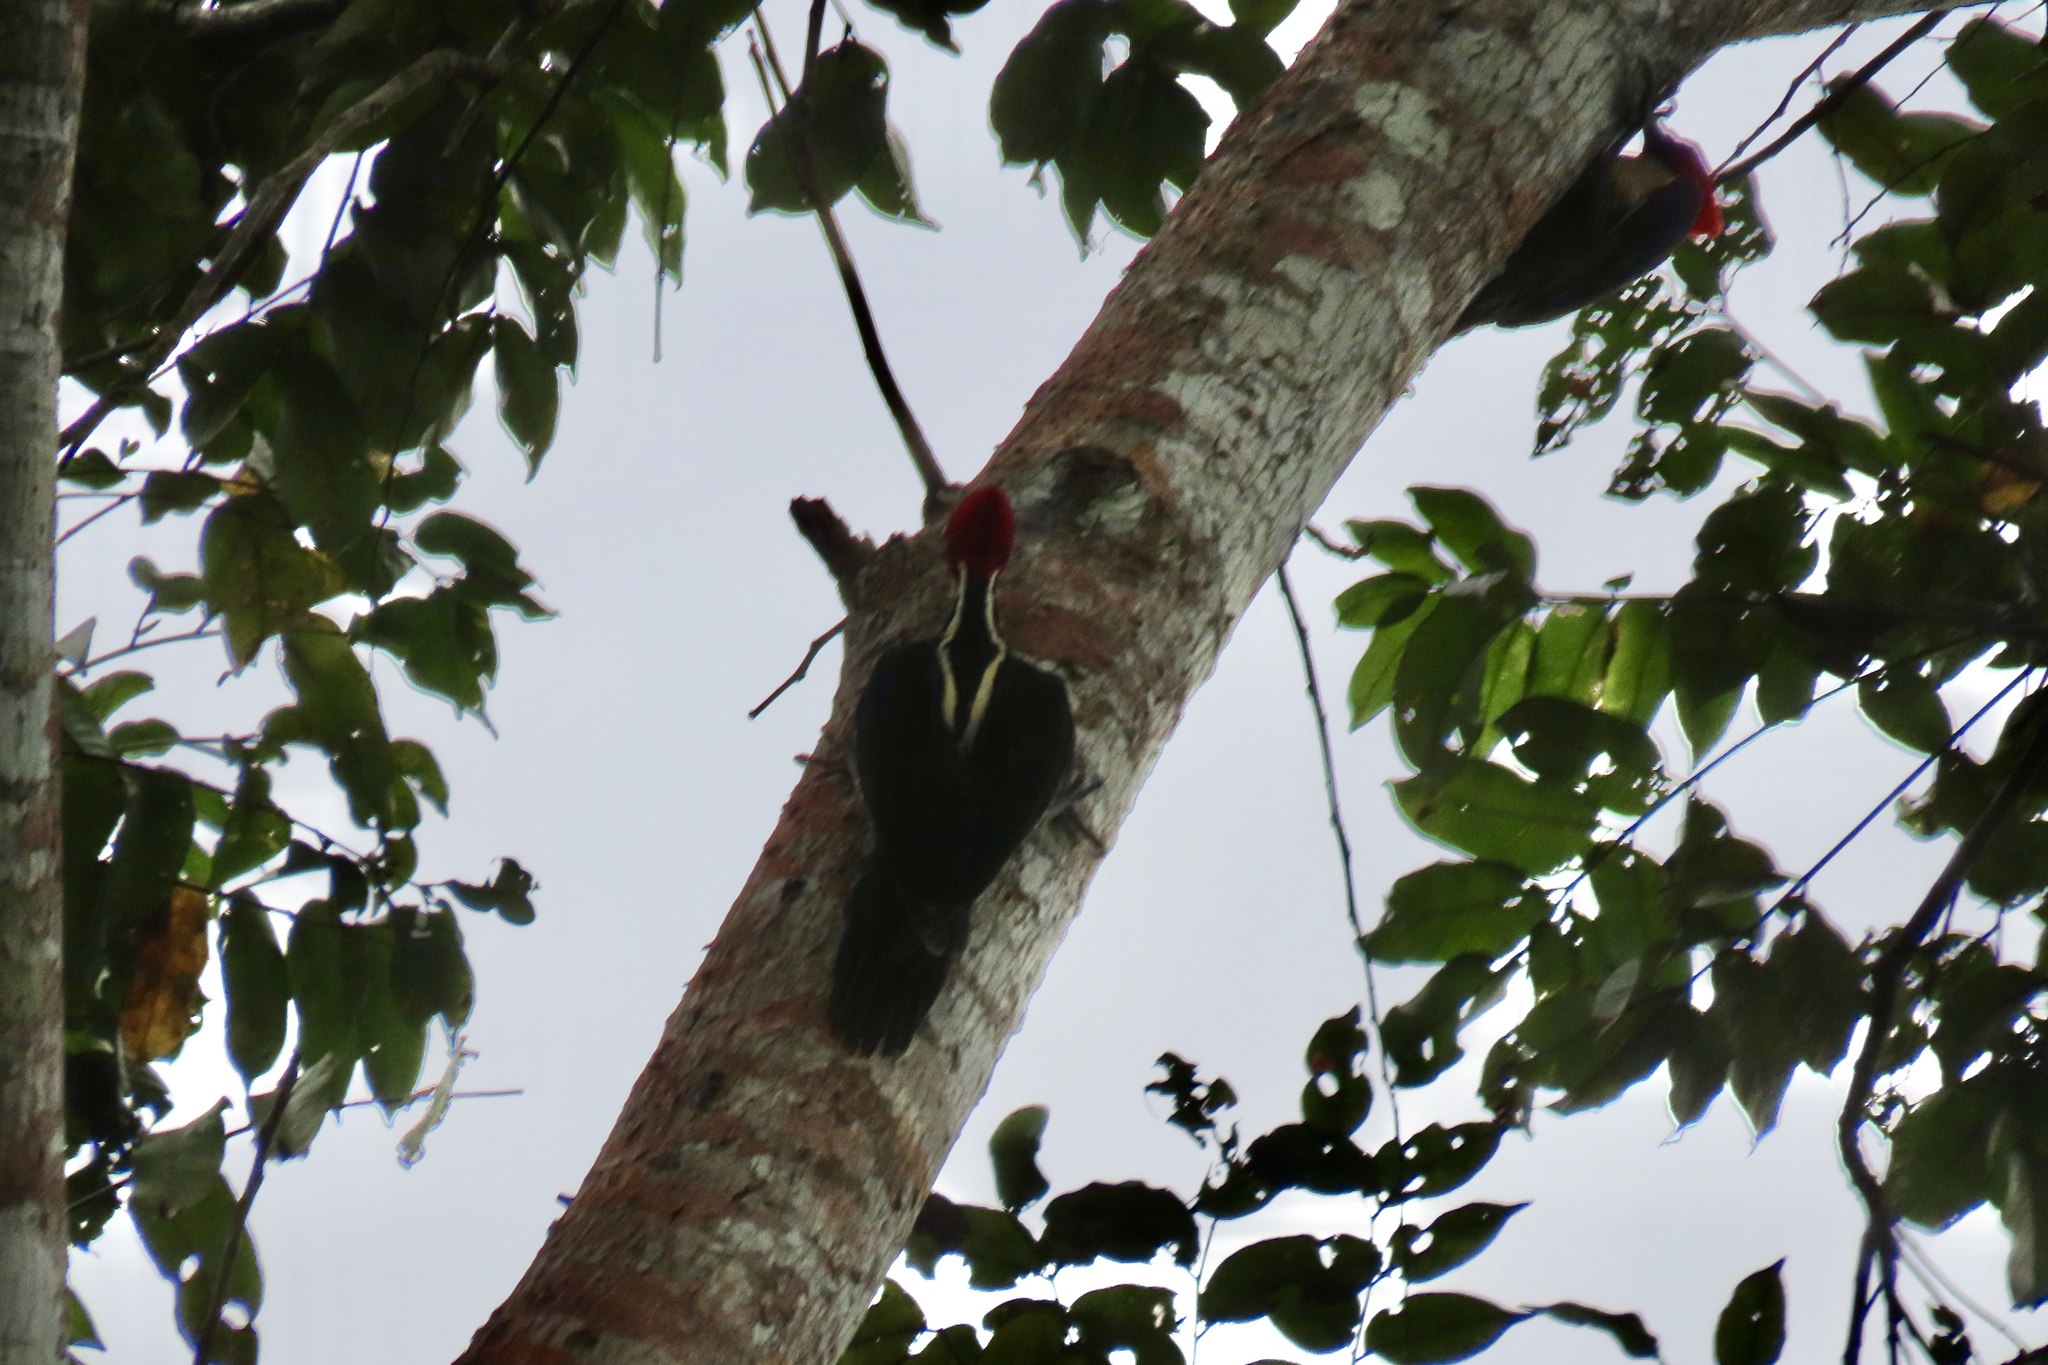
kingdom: Animalia
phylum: Chordata
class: Aves
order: Piciformes
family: Picidae
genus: Campephilus
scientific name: Campephilus guatemalensis
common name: Pale-billed woodpecker
